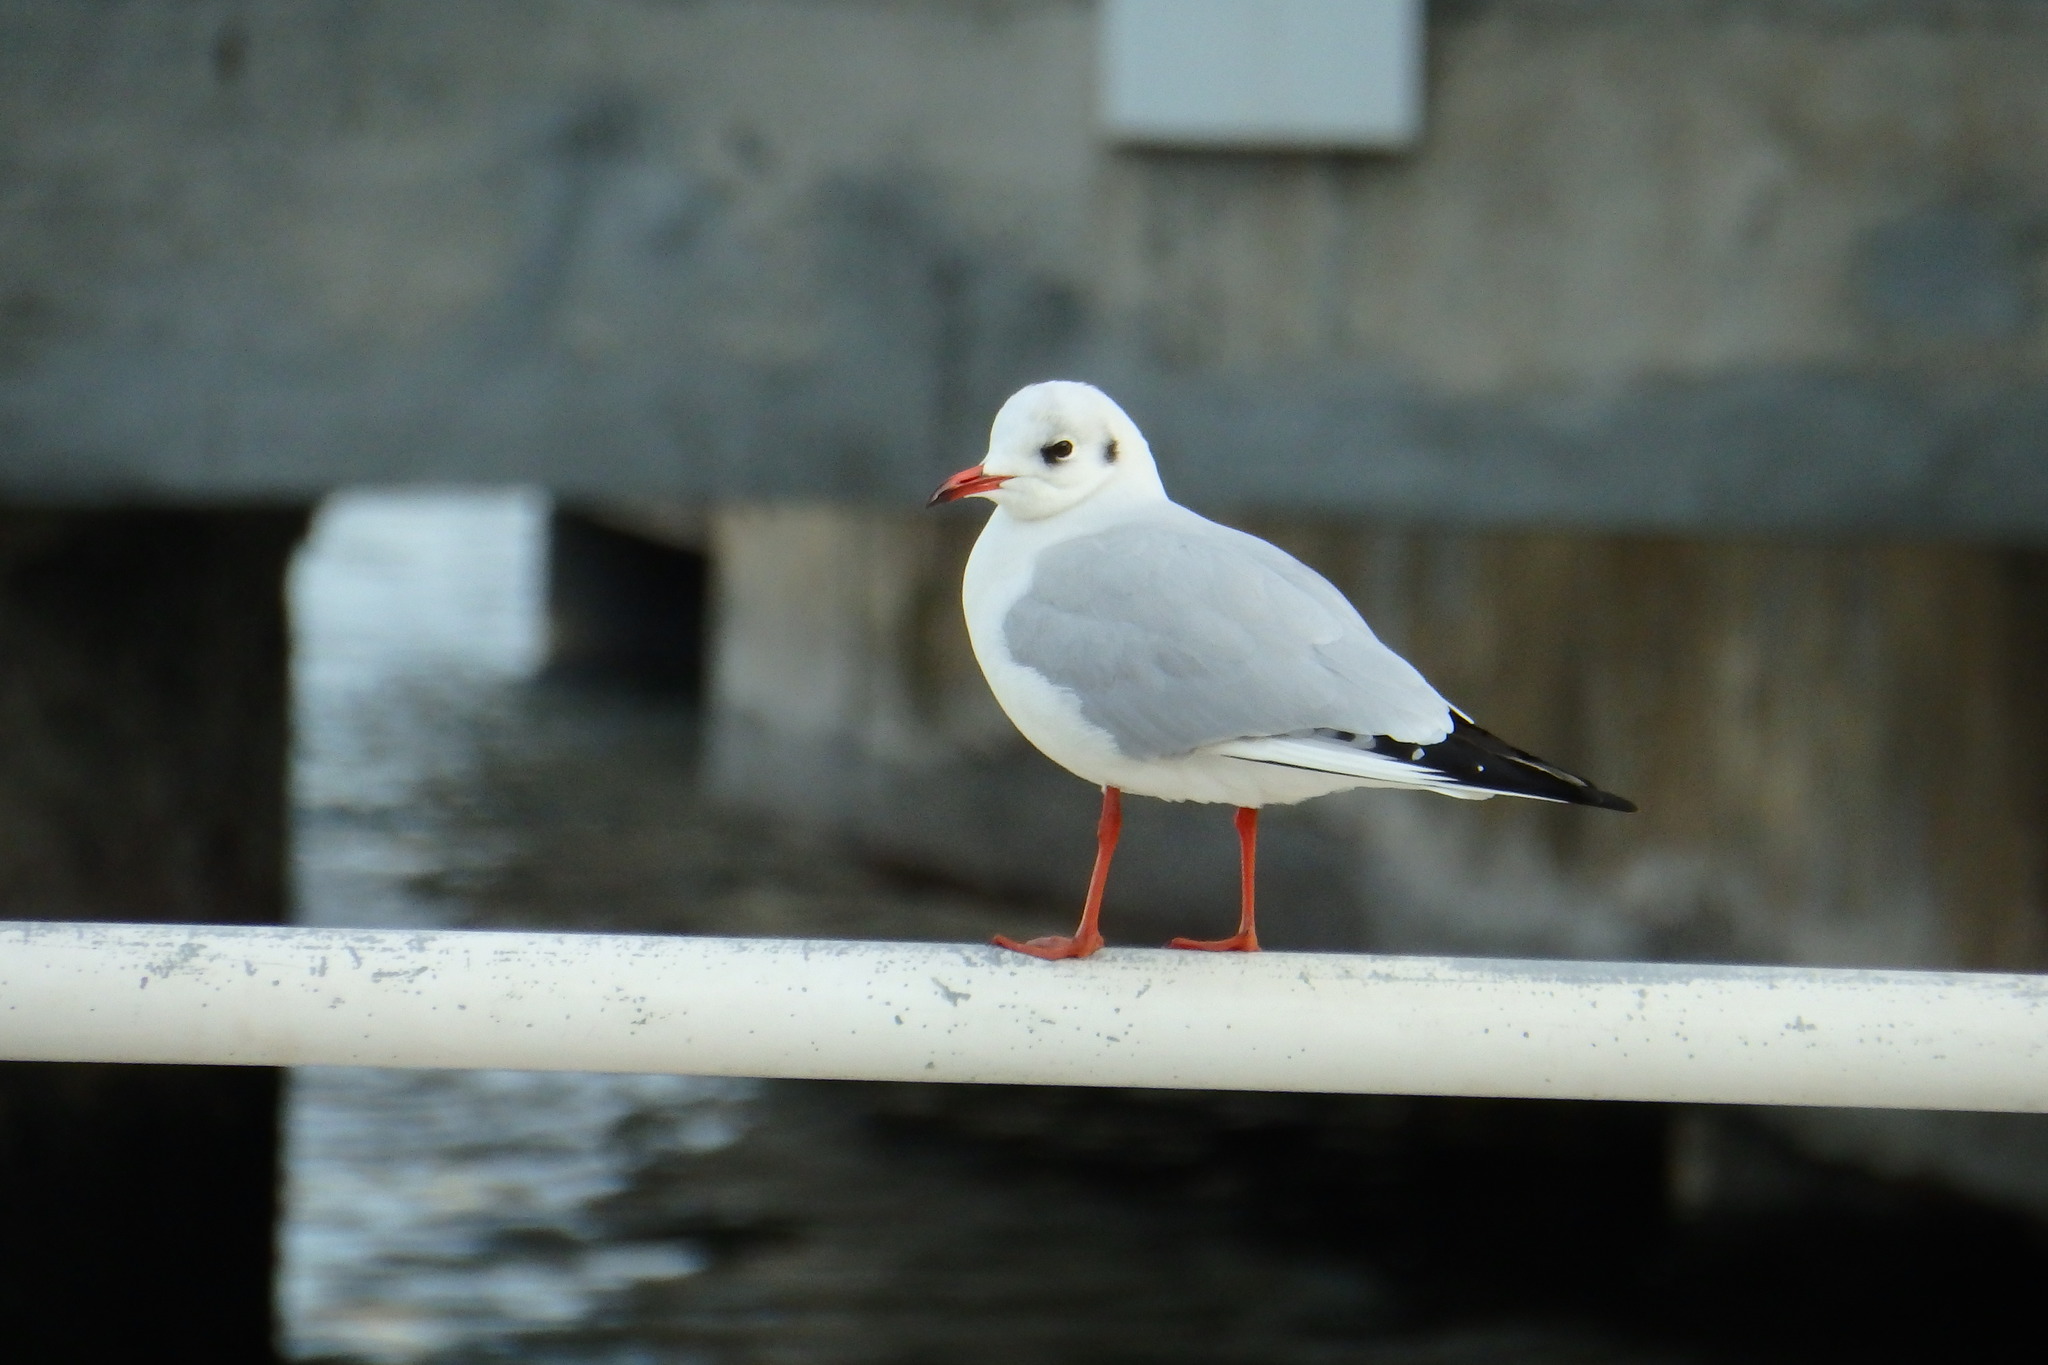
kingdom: Animalia
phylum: Chordata
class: Aves
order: Charadriiformes
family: Laridae
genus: Chroicocephalus
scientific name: Chroicocephalus ridibundus
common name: Black-headed gull
